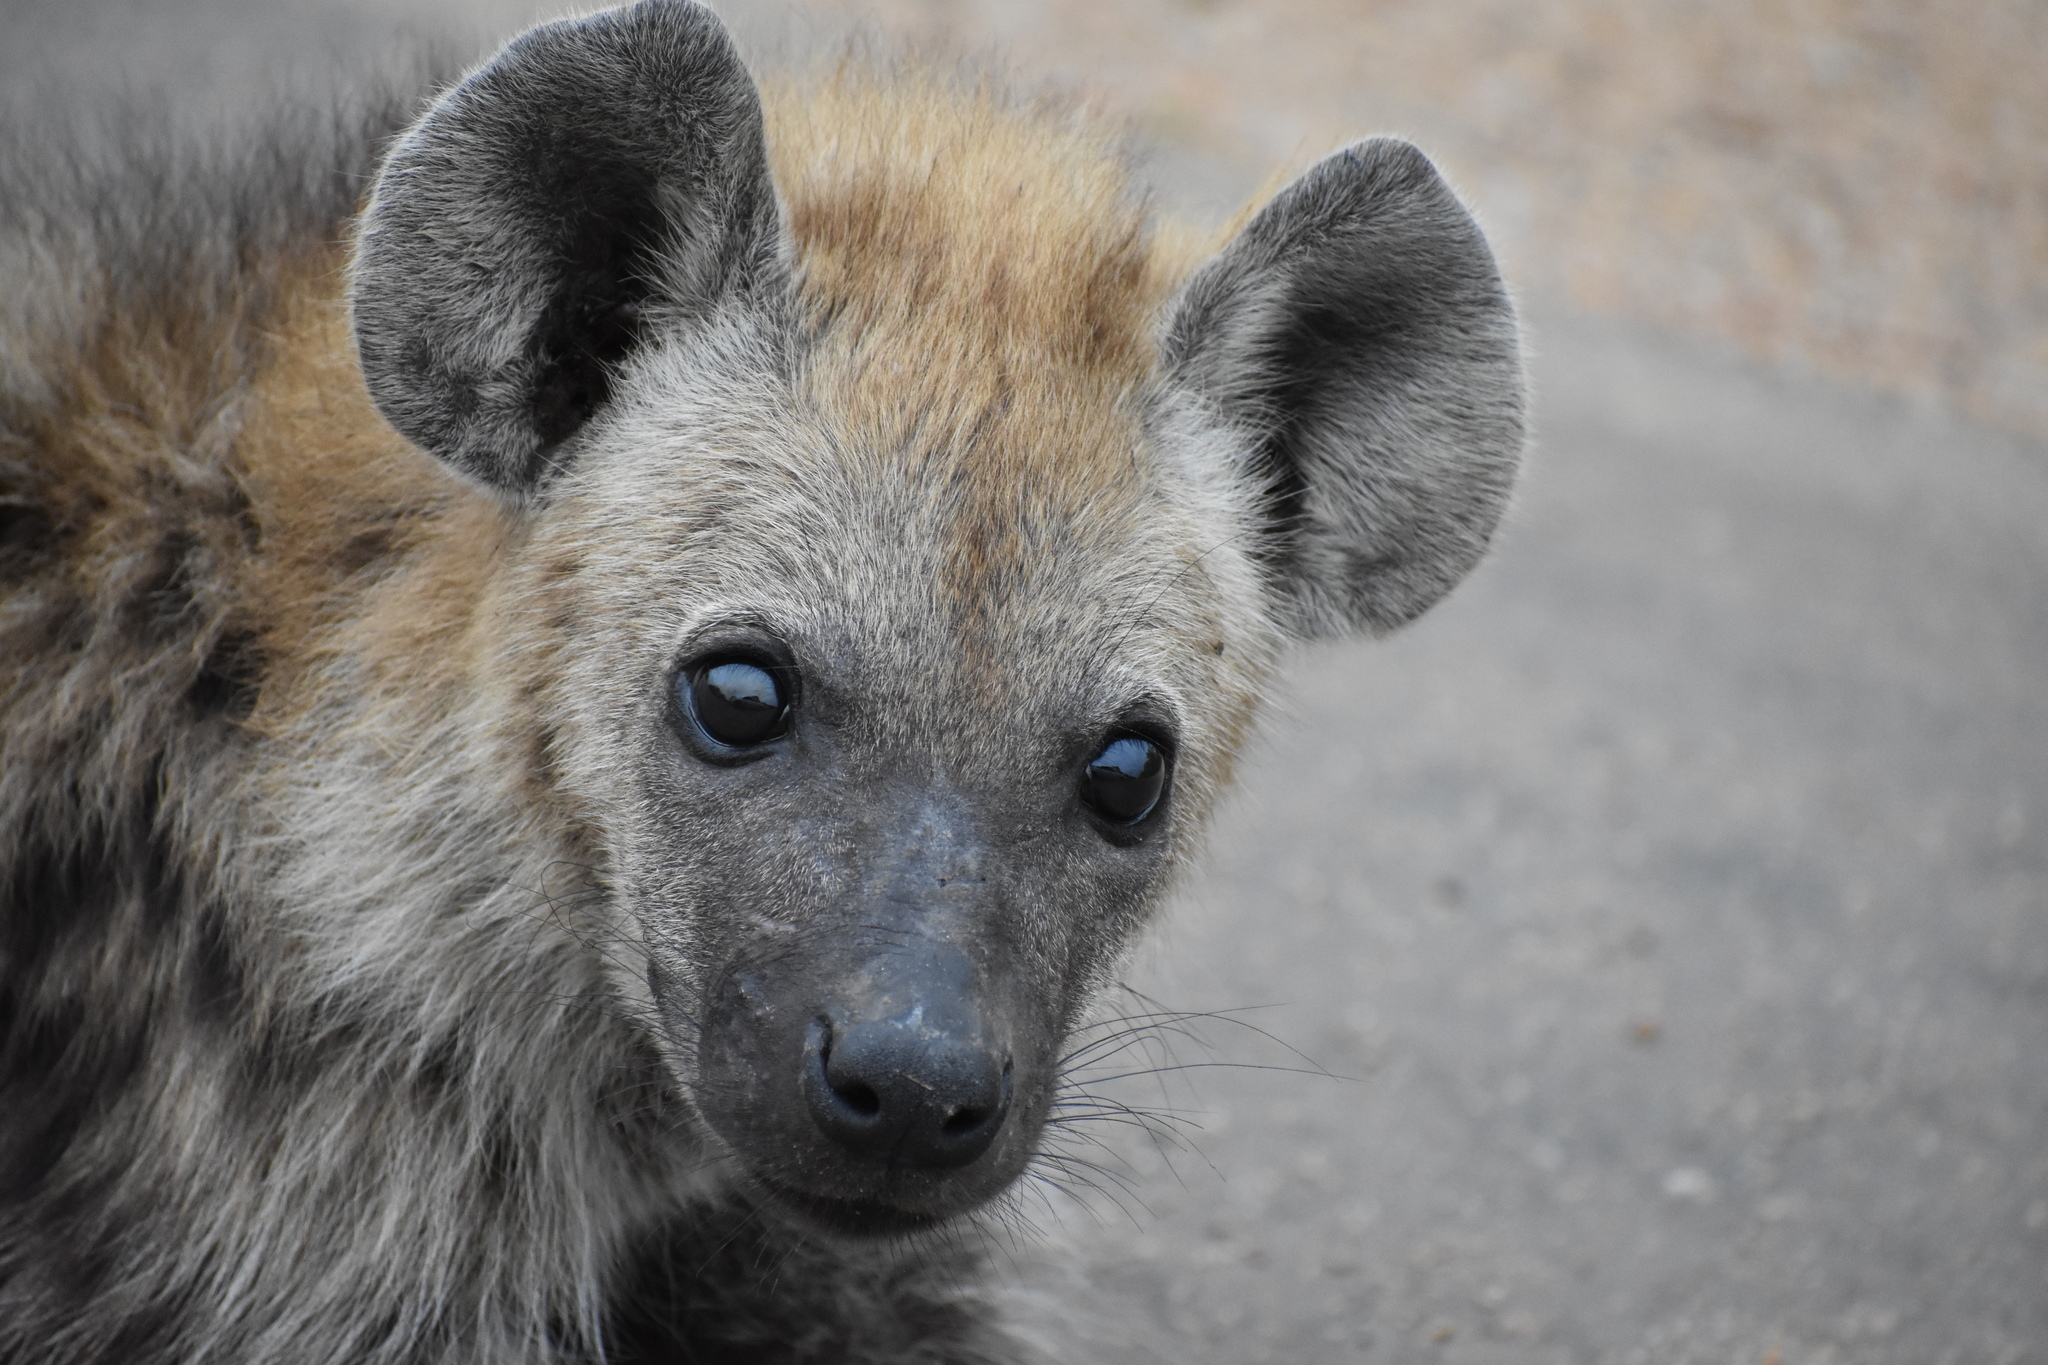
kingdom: Animalia
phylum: Chordata
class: Mammalia
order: Carnivora
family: Hyaenidae
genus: Crocuta
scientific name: Crocuta crocuta
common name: Spotted hyaena
